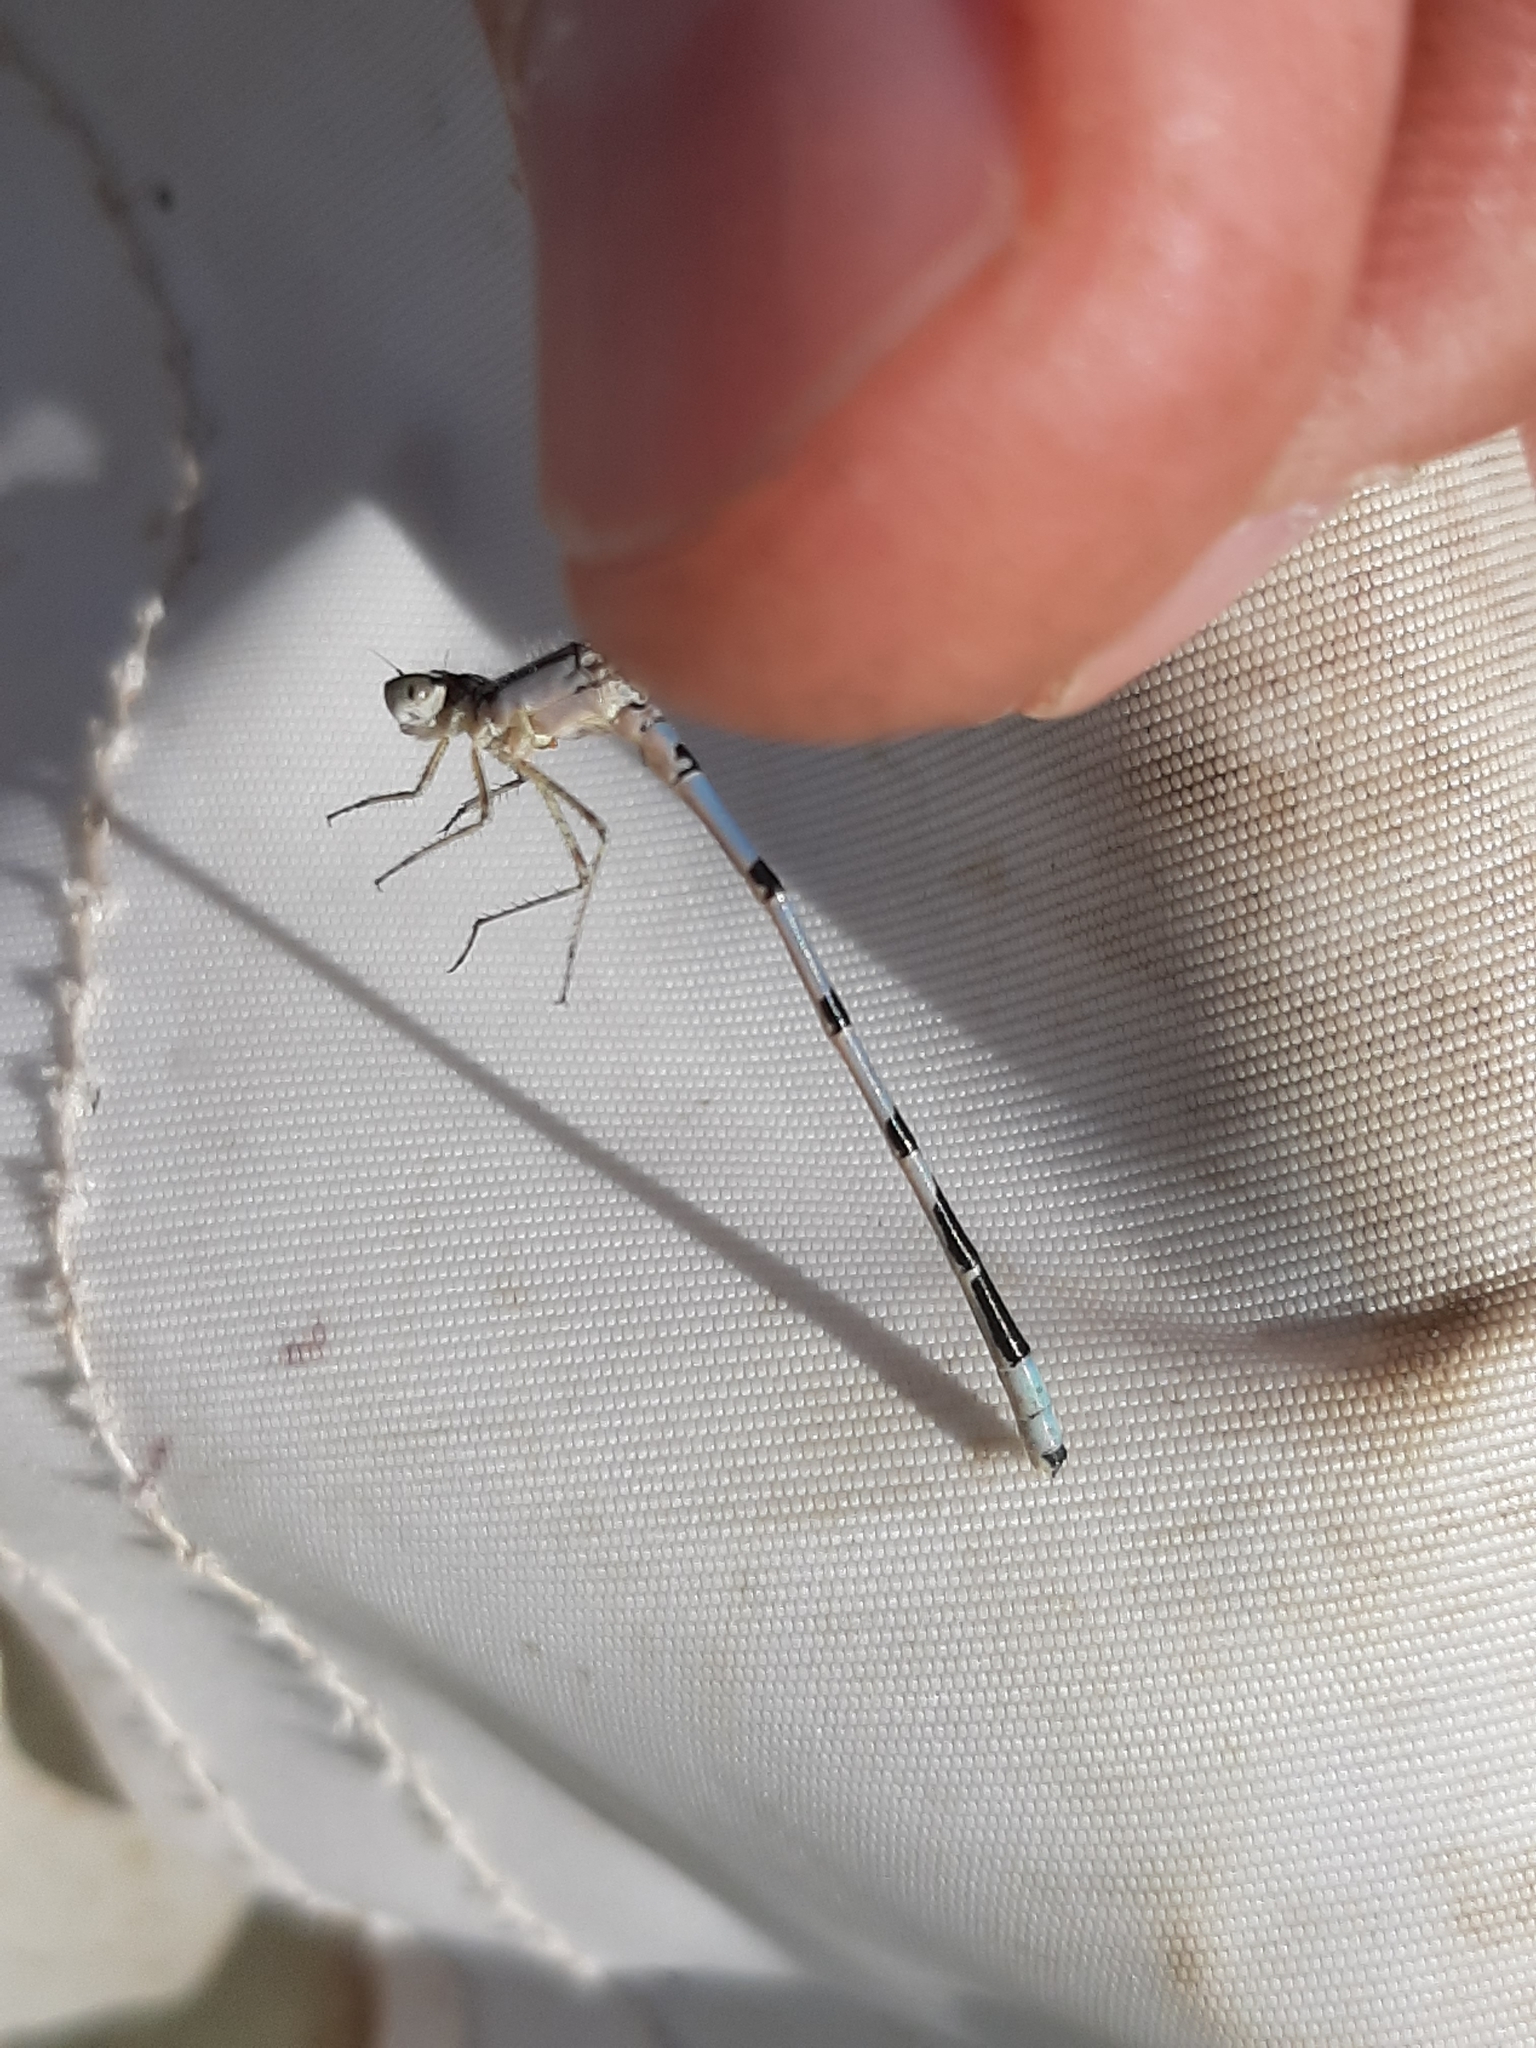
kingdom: Animalia
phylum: Arthropoda
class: Insecta
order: Odonata
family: Coenagrionidae
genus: Enallagma
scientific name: Enallagma annexum
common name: Northern bluet
